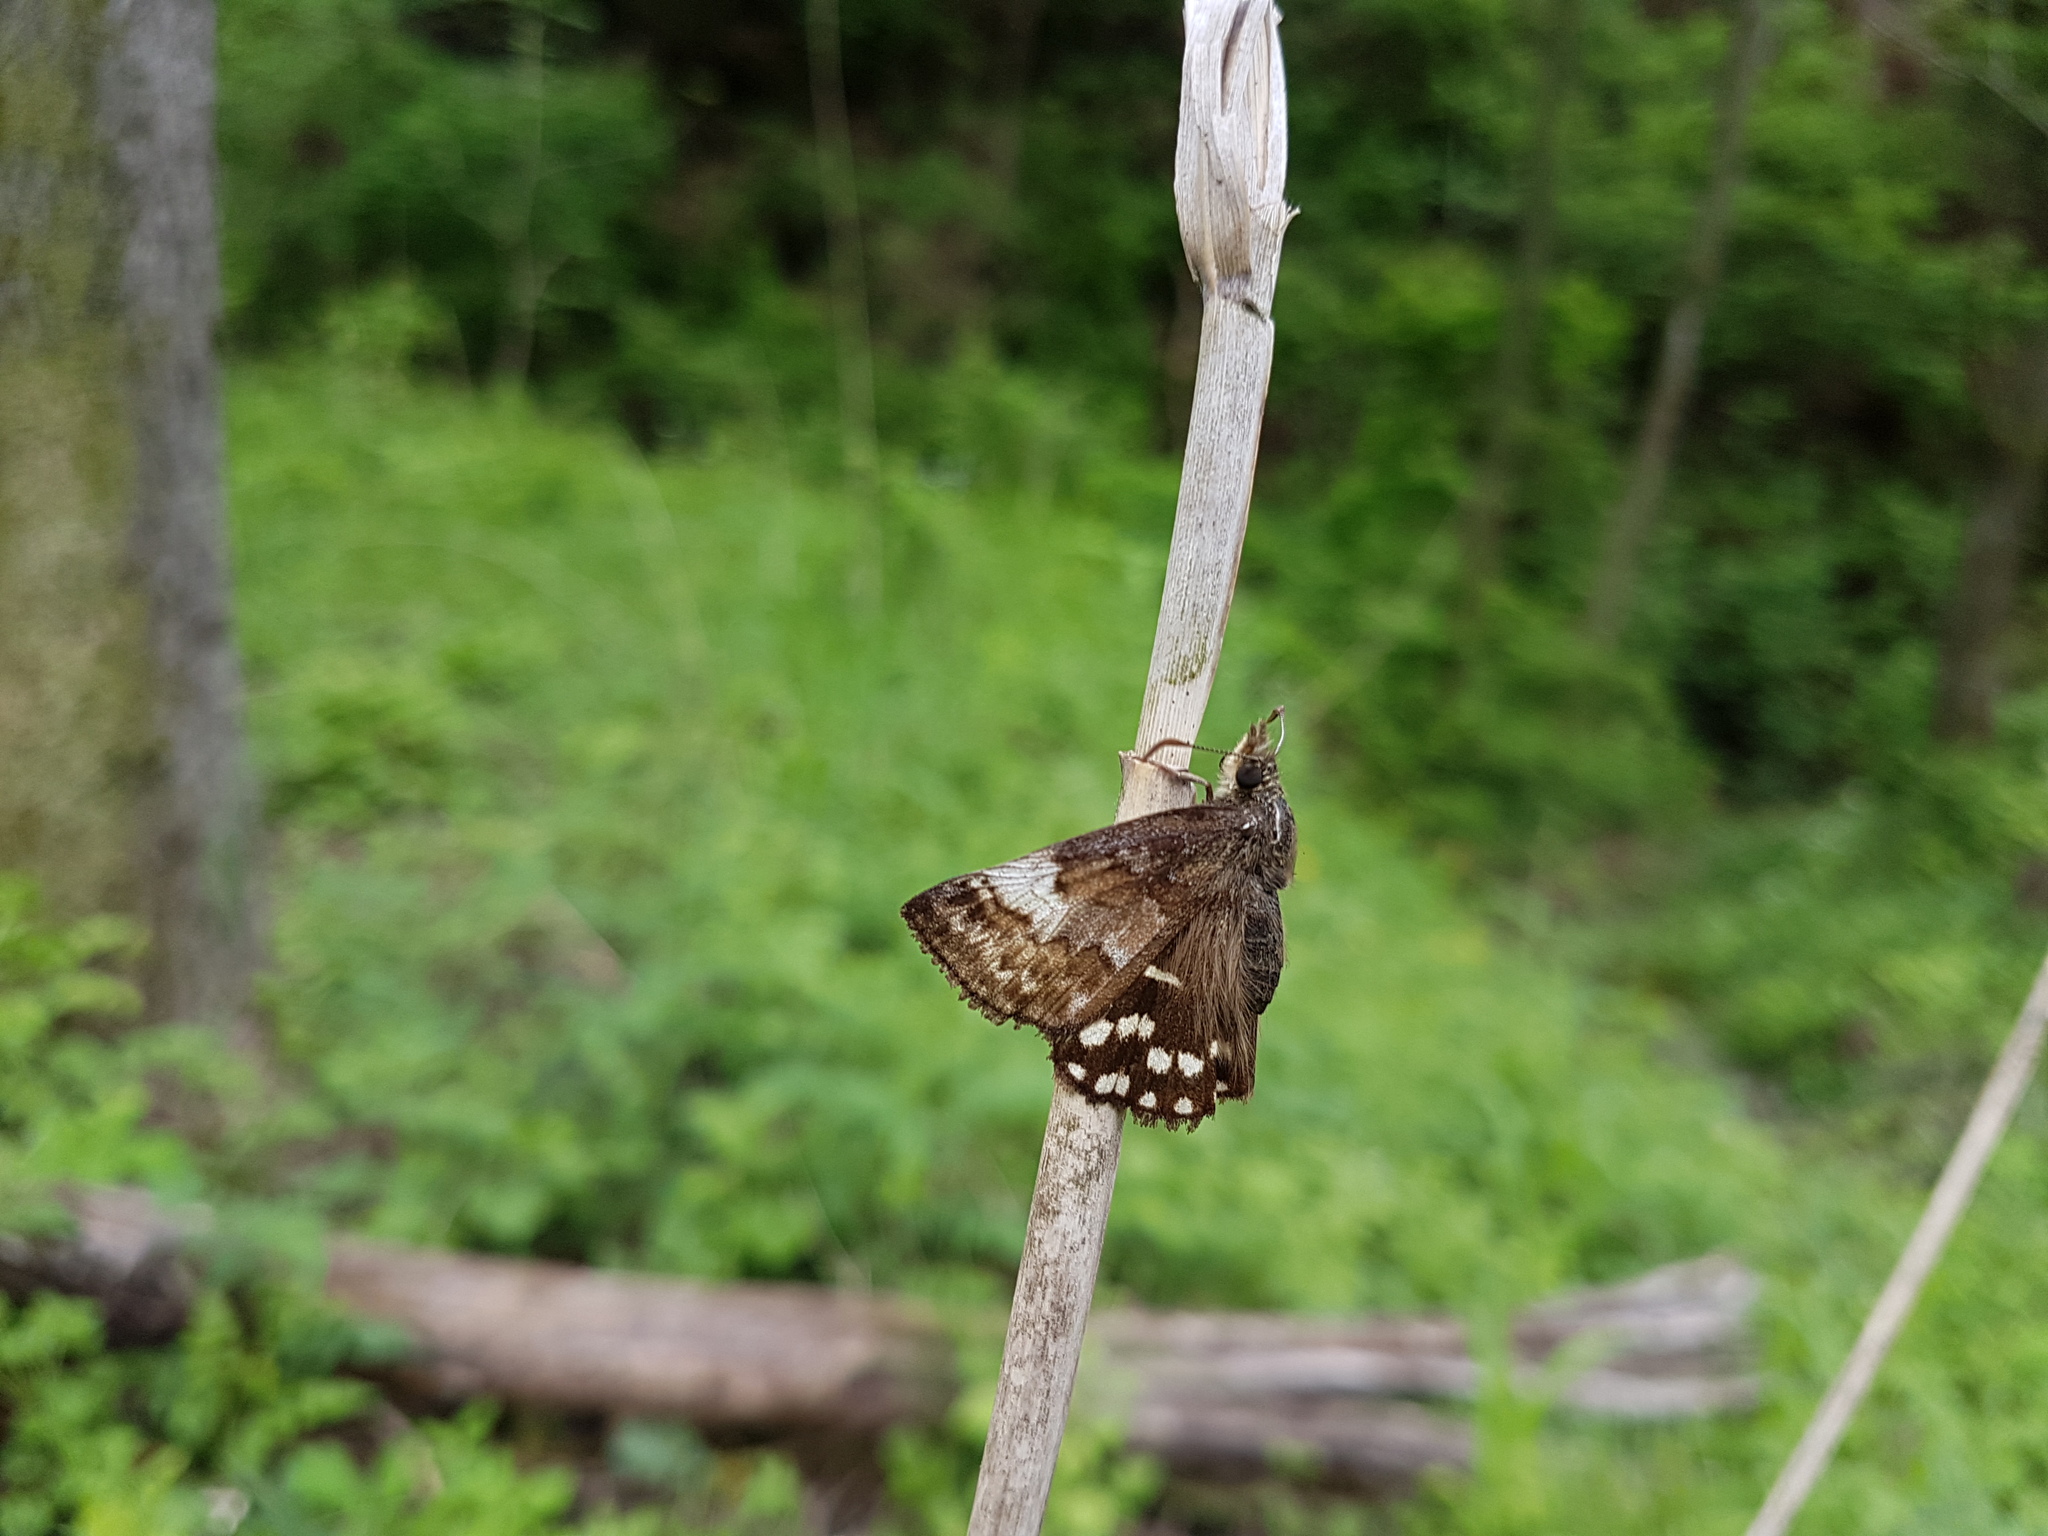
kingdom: Animalia
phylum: Arthropoda
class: Insecta
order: Lepidoptera
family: Hesperiidae
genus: Erynnis
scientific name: Erynnis montanus
